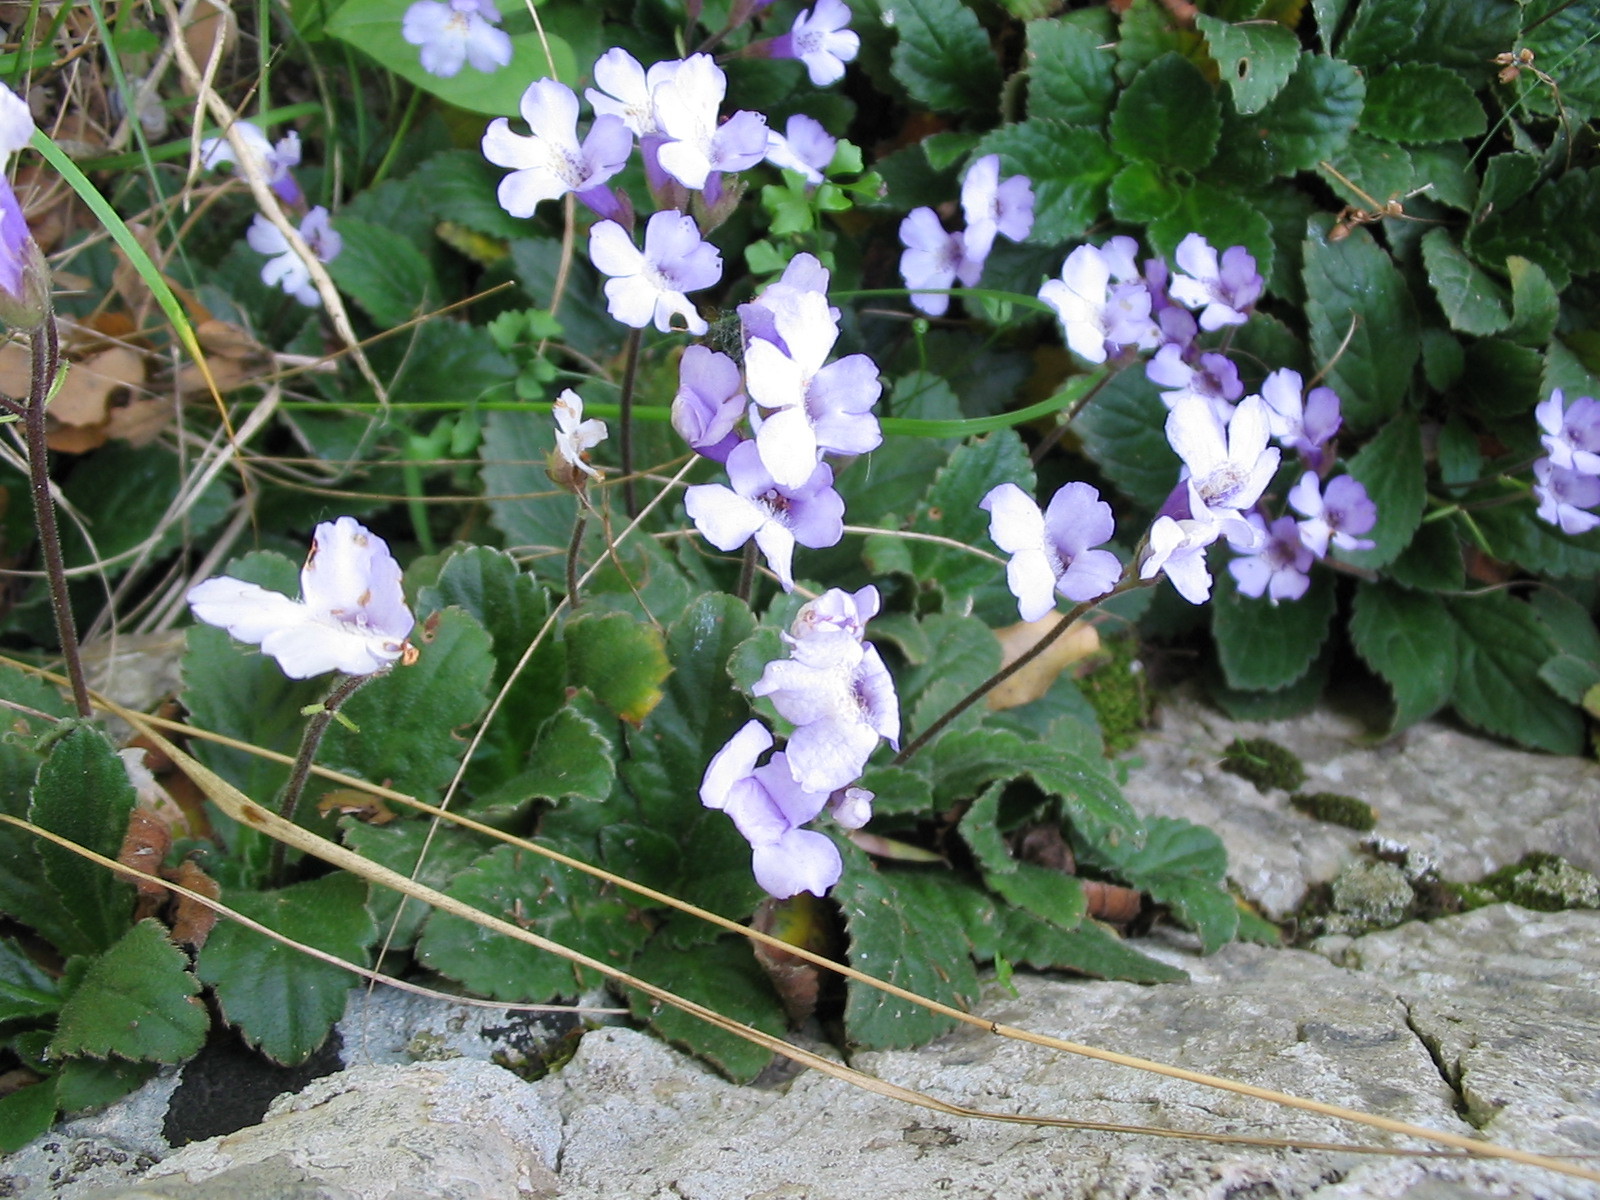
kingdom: Plantae
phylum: Tracheophyta
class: Magnoliopsida
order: Lamiales
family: Gesneriaceae
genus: Haberlea
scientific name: Haberlea rhodopensis
